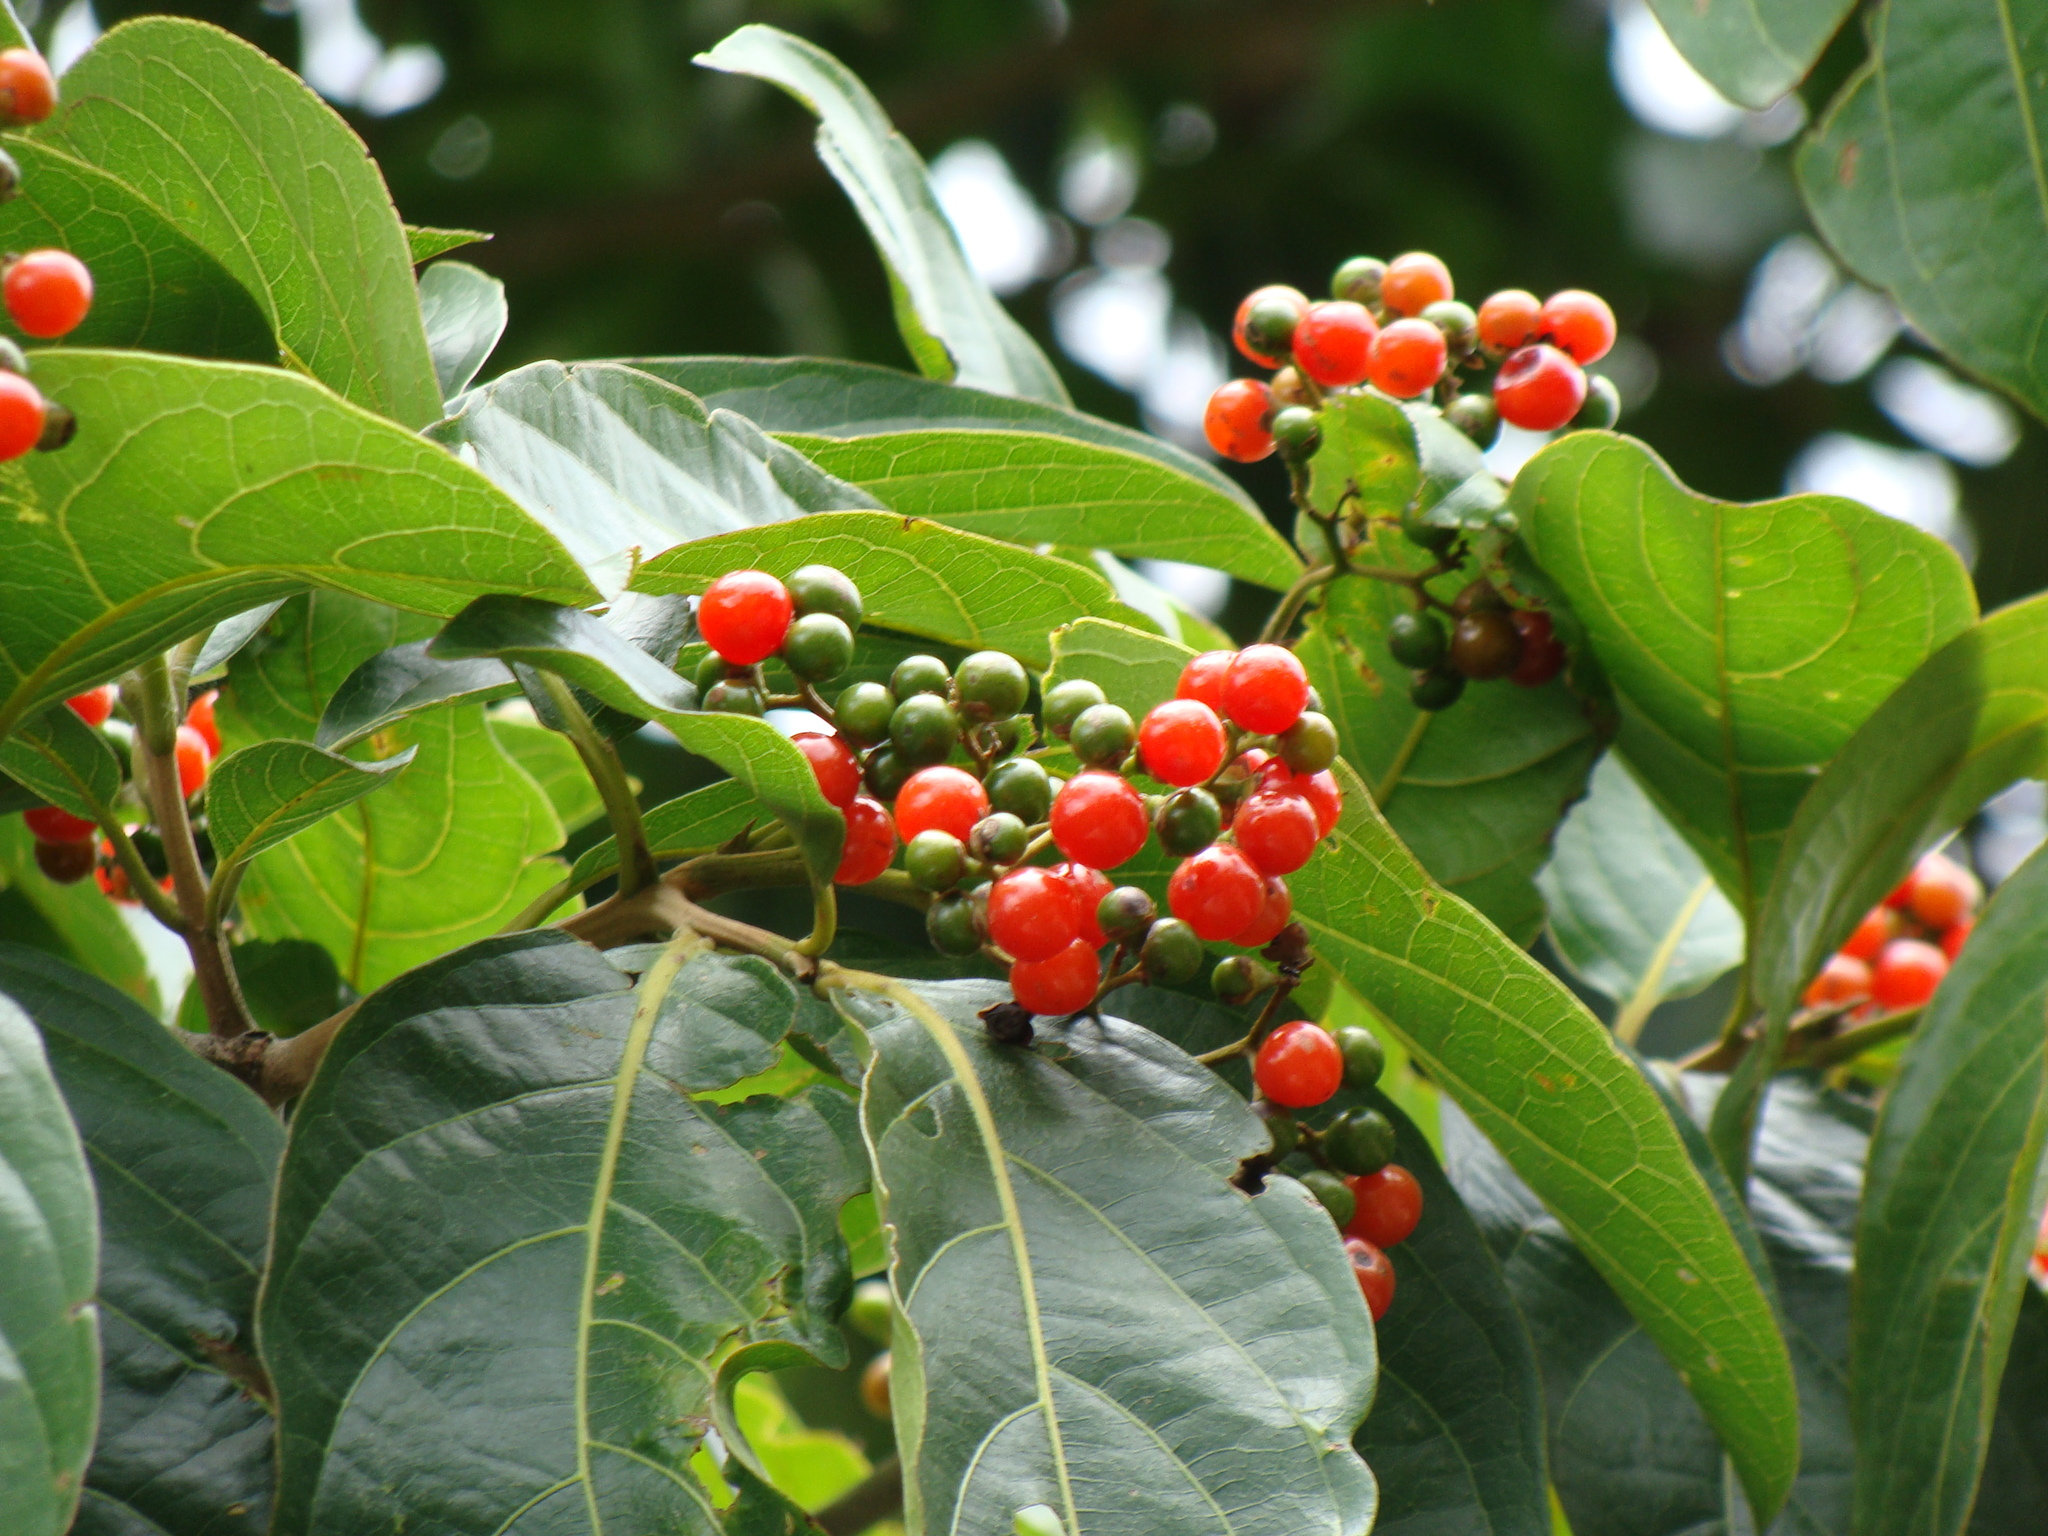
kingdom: Plantae
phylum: Tracheophyta
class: Magnoliopsida
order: Boraginales
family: Cordiaceae
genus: Cordia
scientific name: Cordia collococca
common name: Clammy cherry
